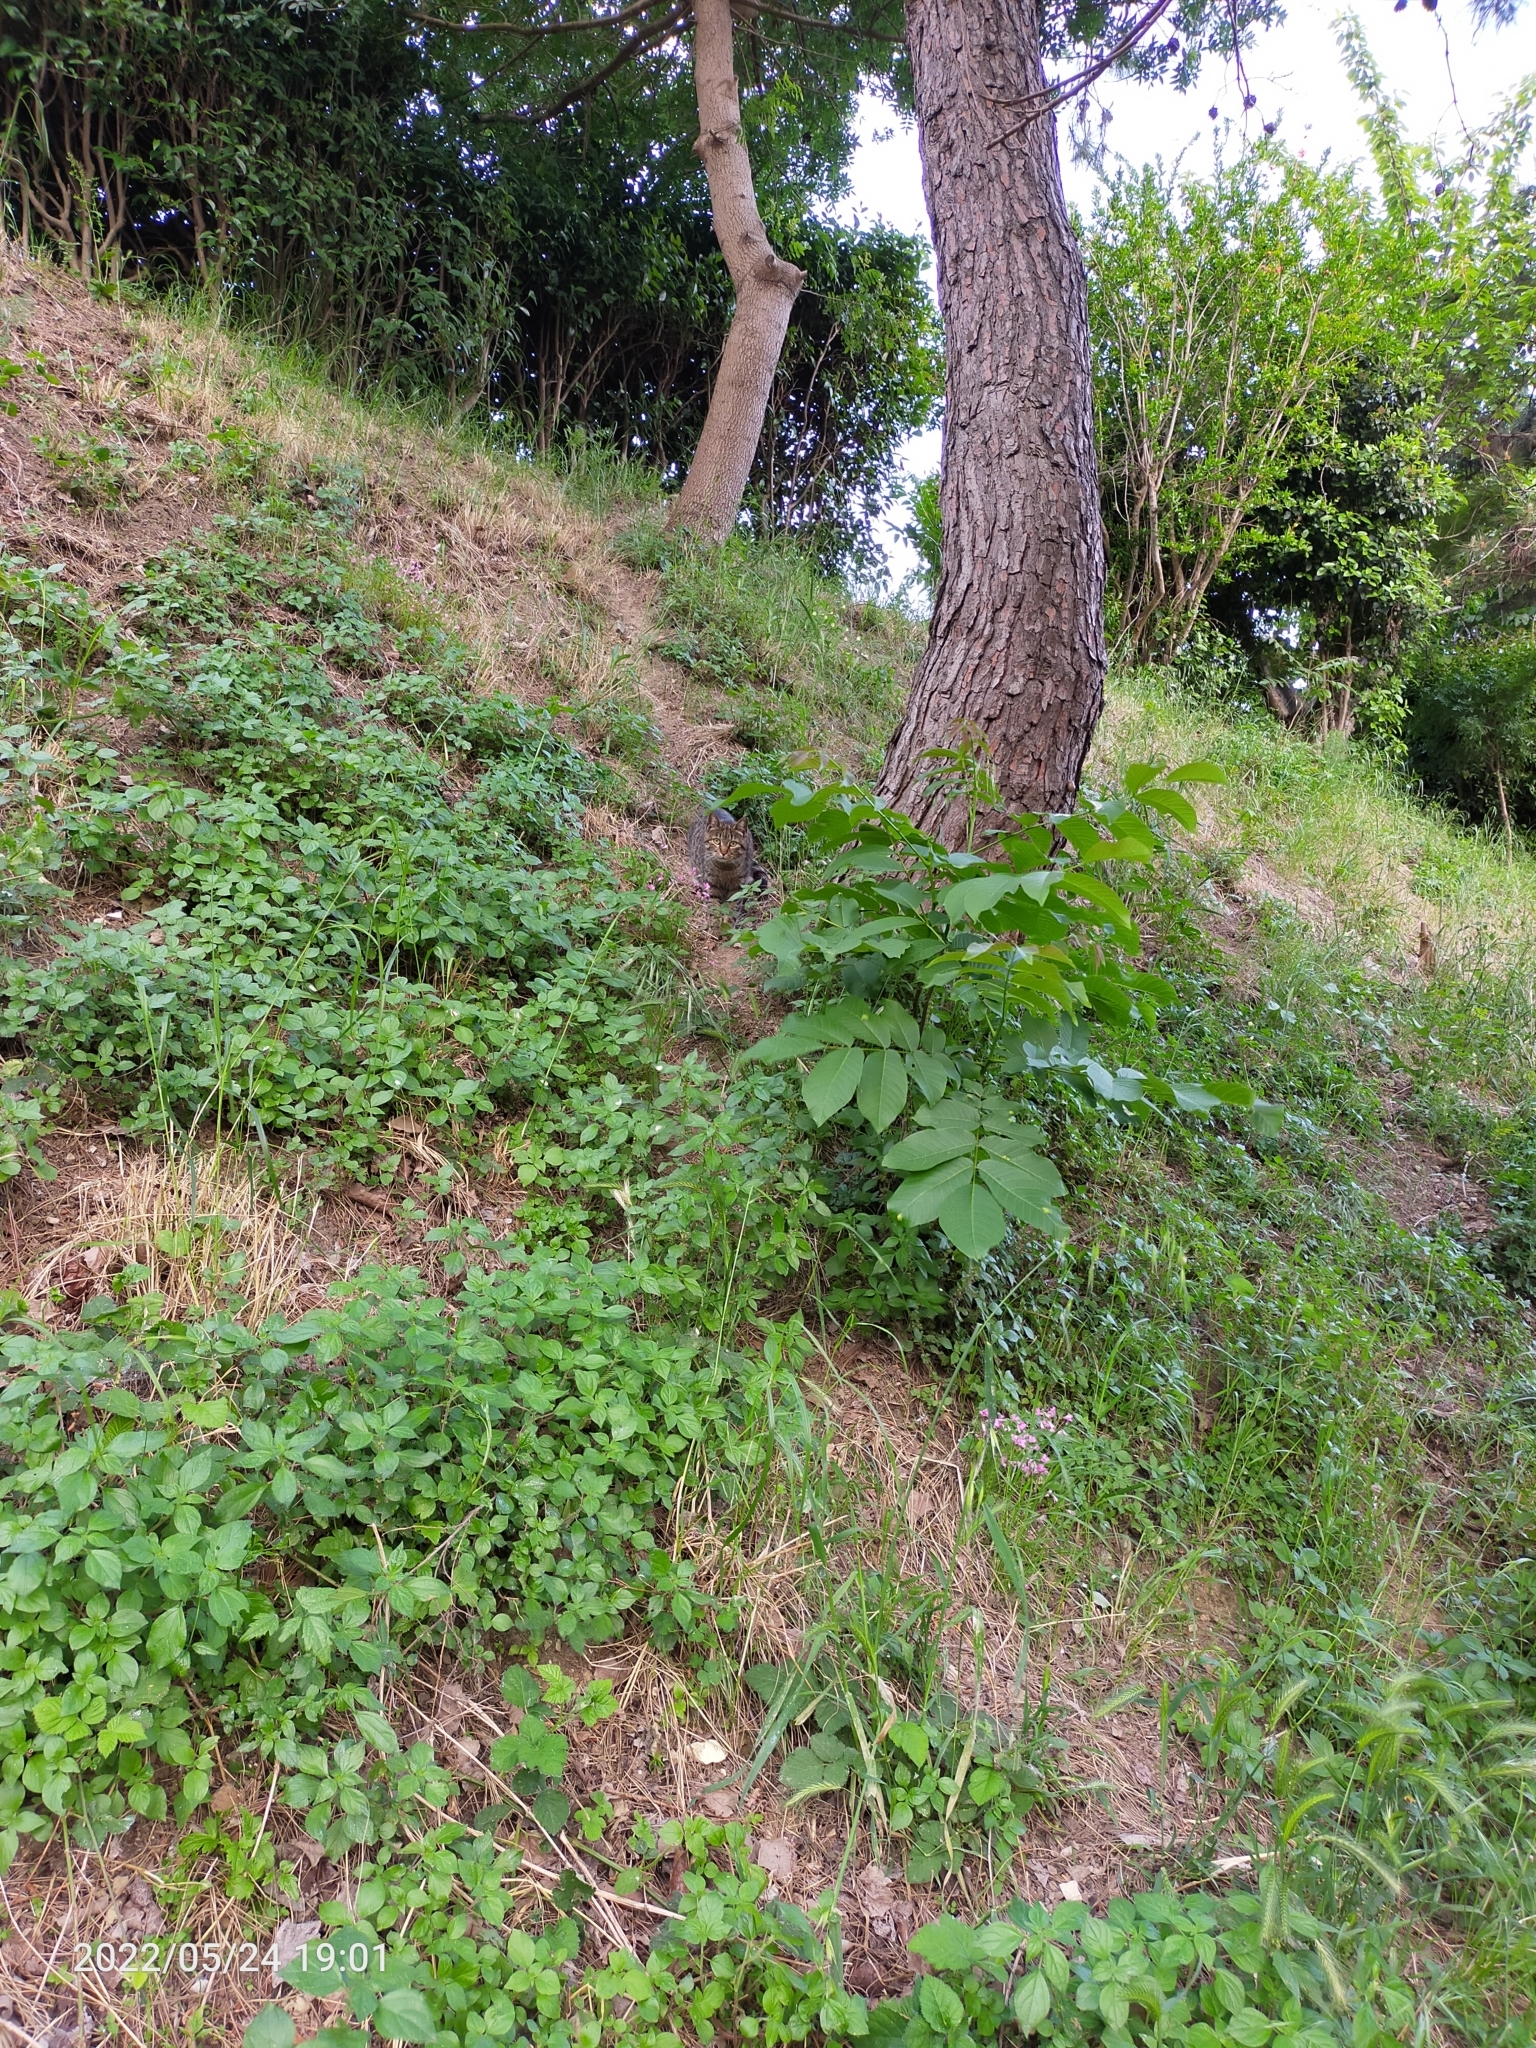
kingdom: Animalia
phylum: Chordata
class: Mammalia
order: Carnivora
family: Felidae
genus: Felis
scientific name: Felis catus
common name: Domestic cat
